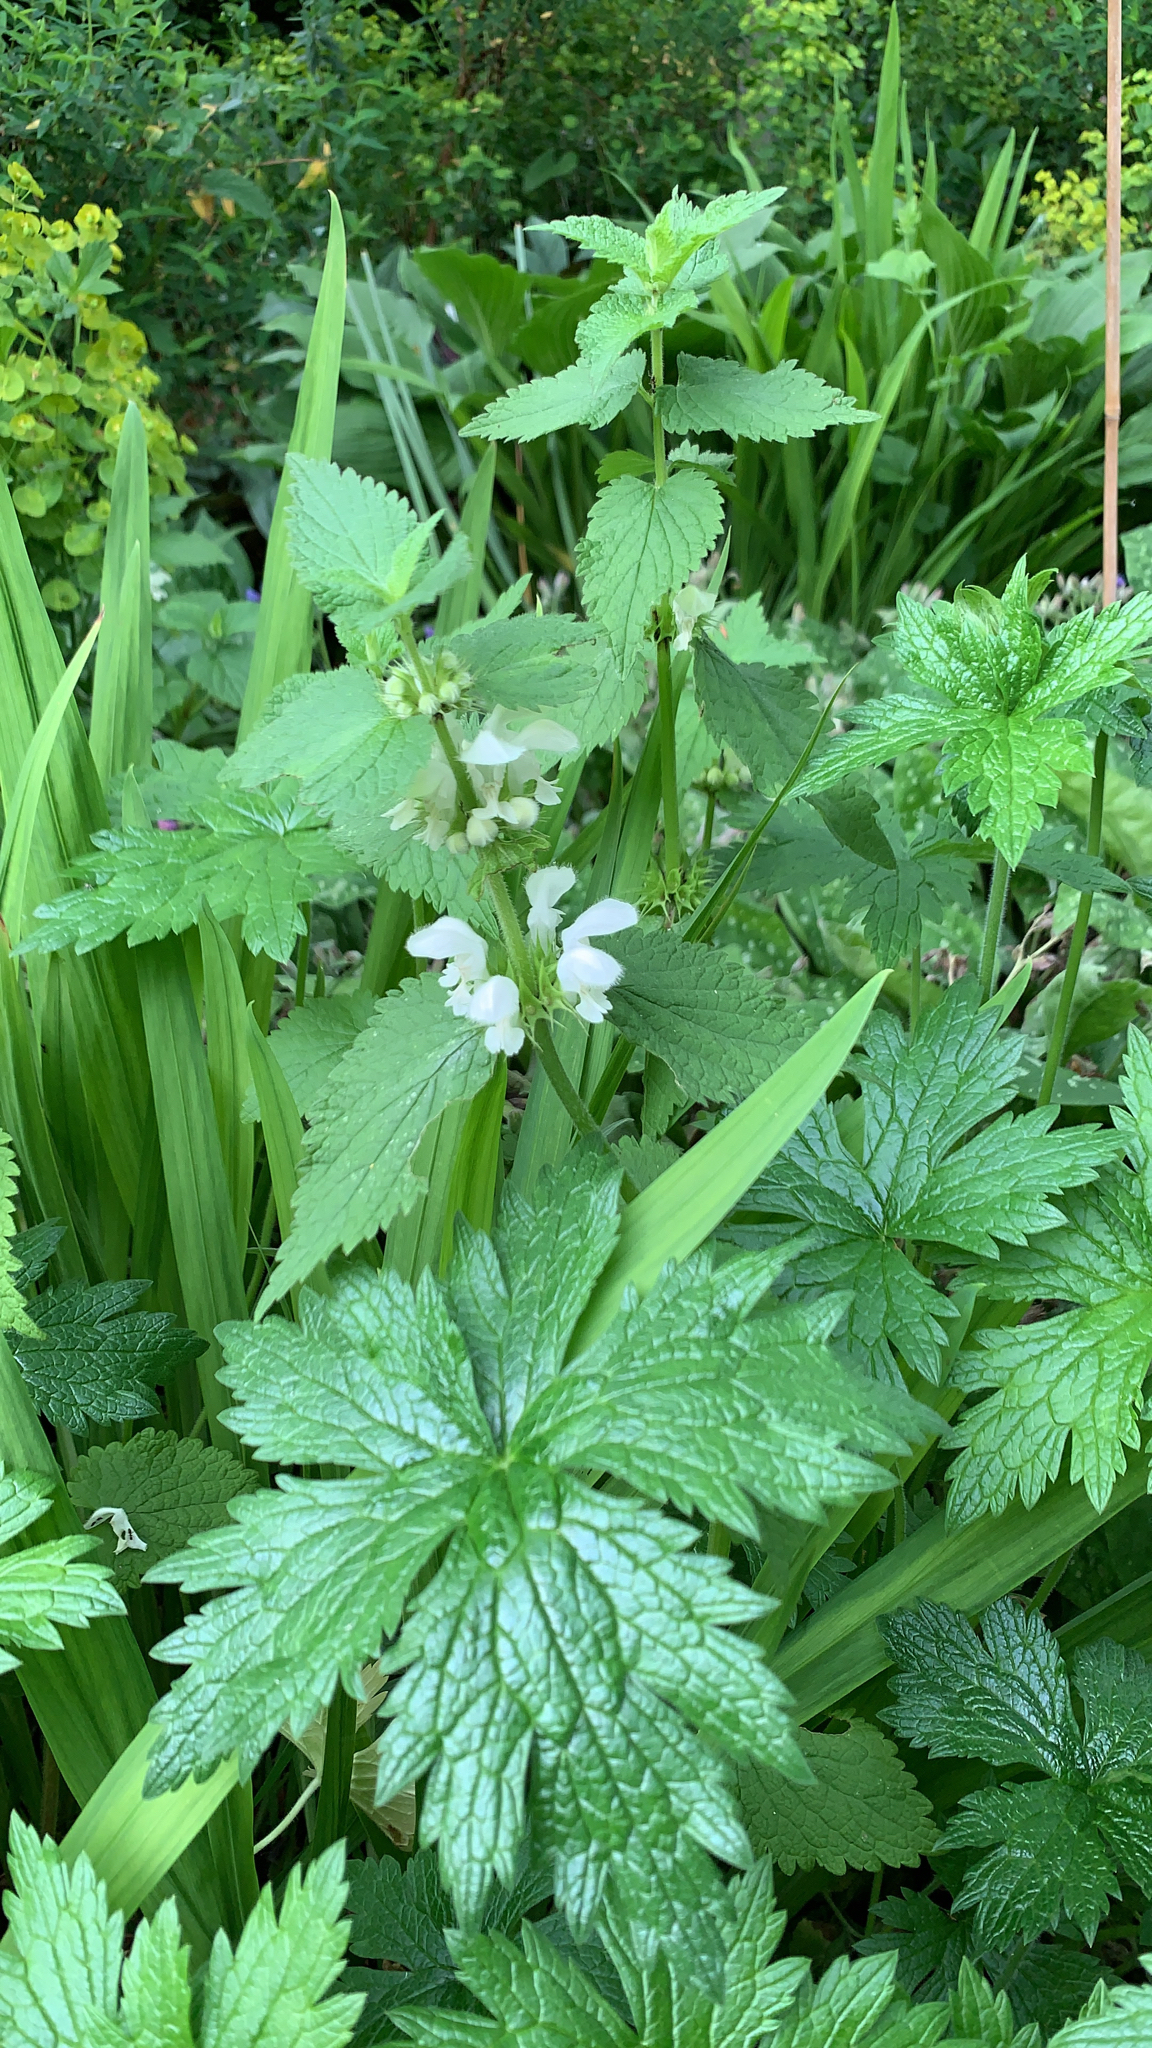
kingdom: Plantae
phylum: Tracheophyta
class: Magnoliopsida
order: Lamiales
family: Lamiaceae
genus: Lamium
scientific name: Lamium album
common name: White dead-nettle
